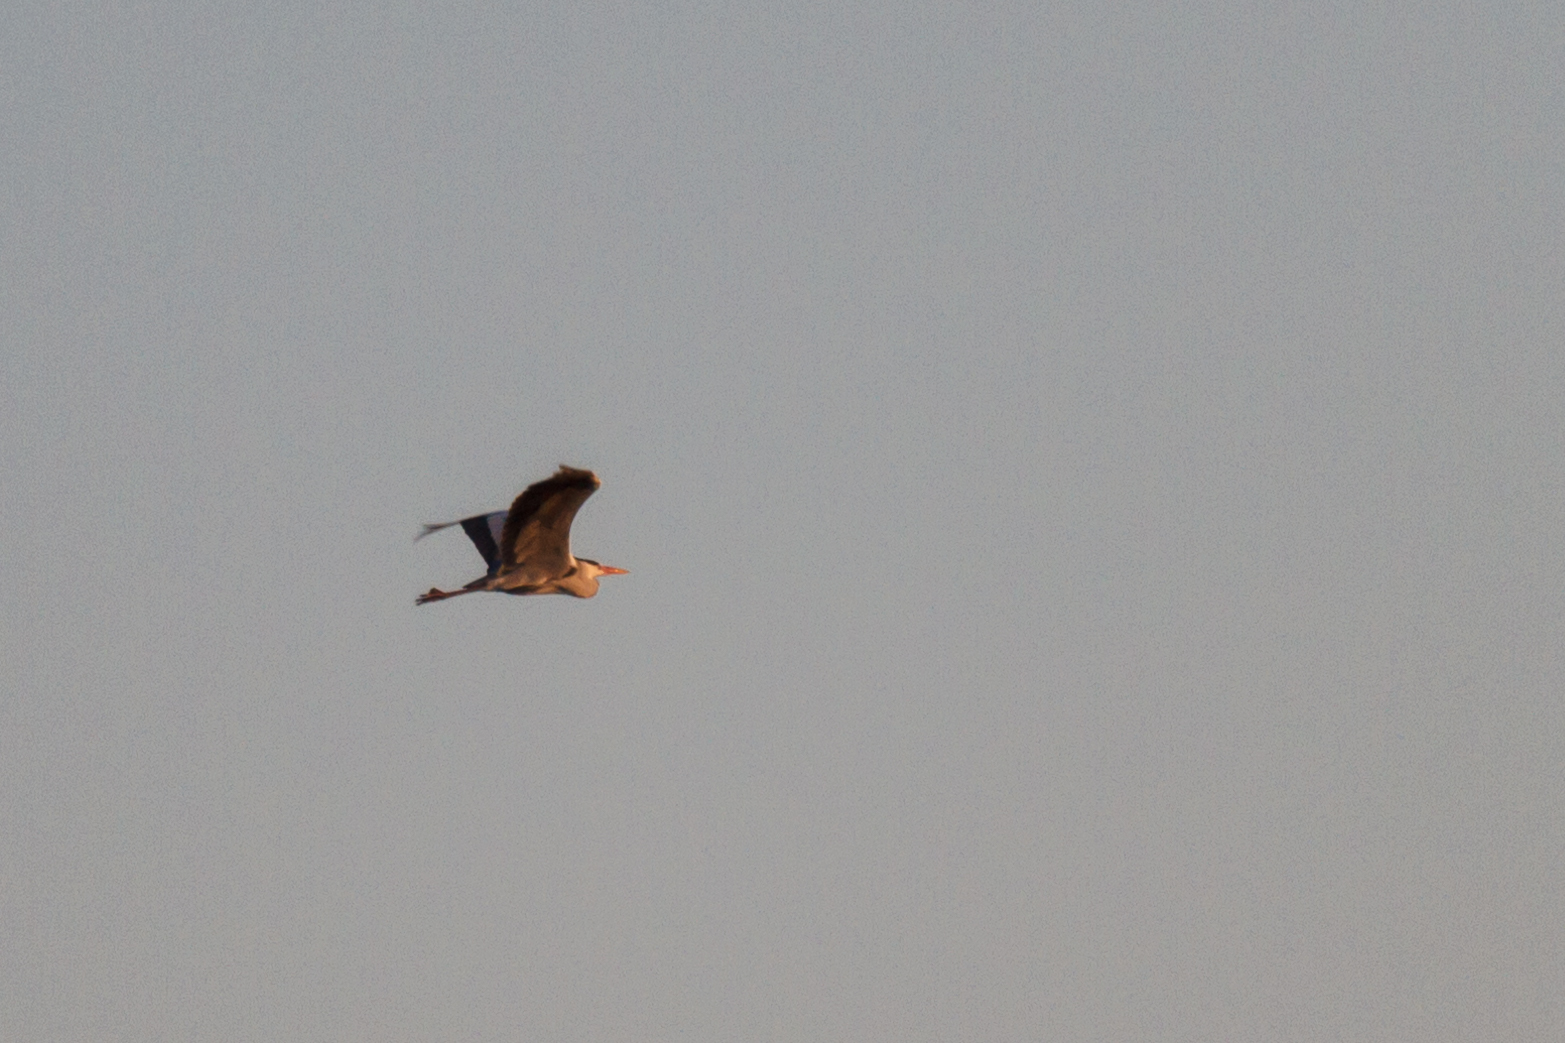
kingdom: Animalia
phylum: Chordata
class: Aves
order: Pelecaniformes
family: Ardeidae
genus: Ardea
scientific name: Ardea cinerea
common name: Grey heron
